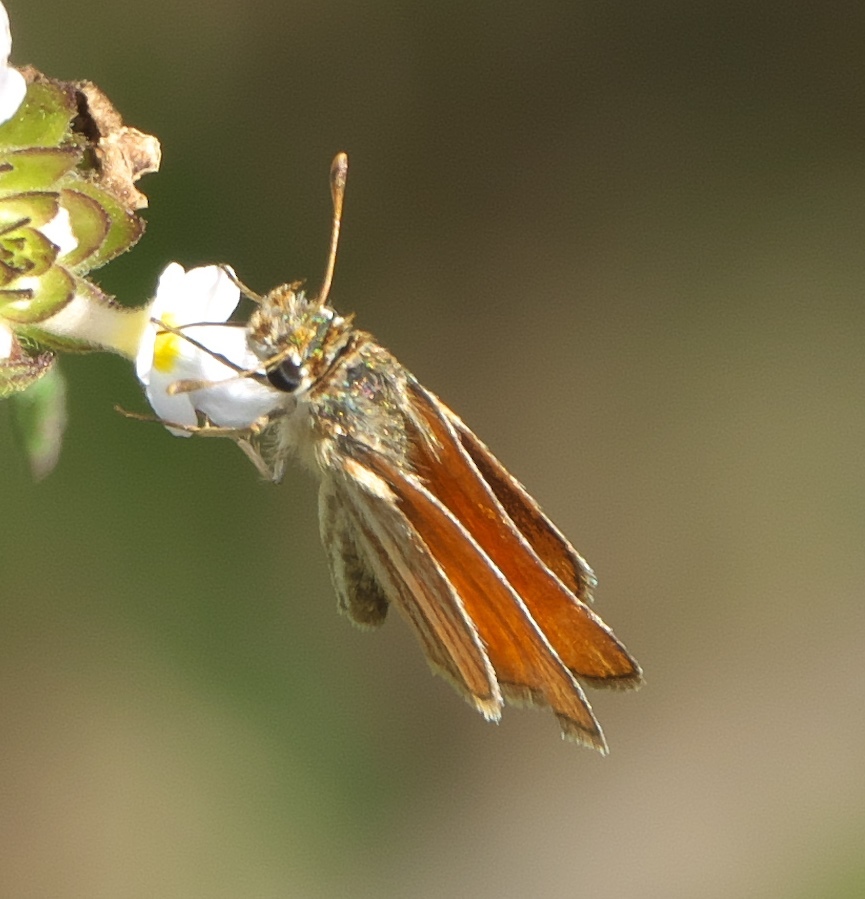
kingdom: Animalia
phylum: Arthropoda
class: Insecta
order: Lepidoptera
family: Hesperiidae
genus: Copaeodes
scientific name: Copaeodes minima
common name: Southern skipperling
